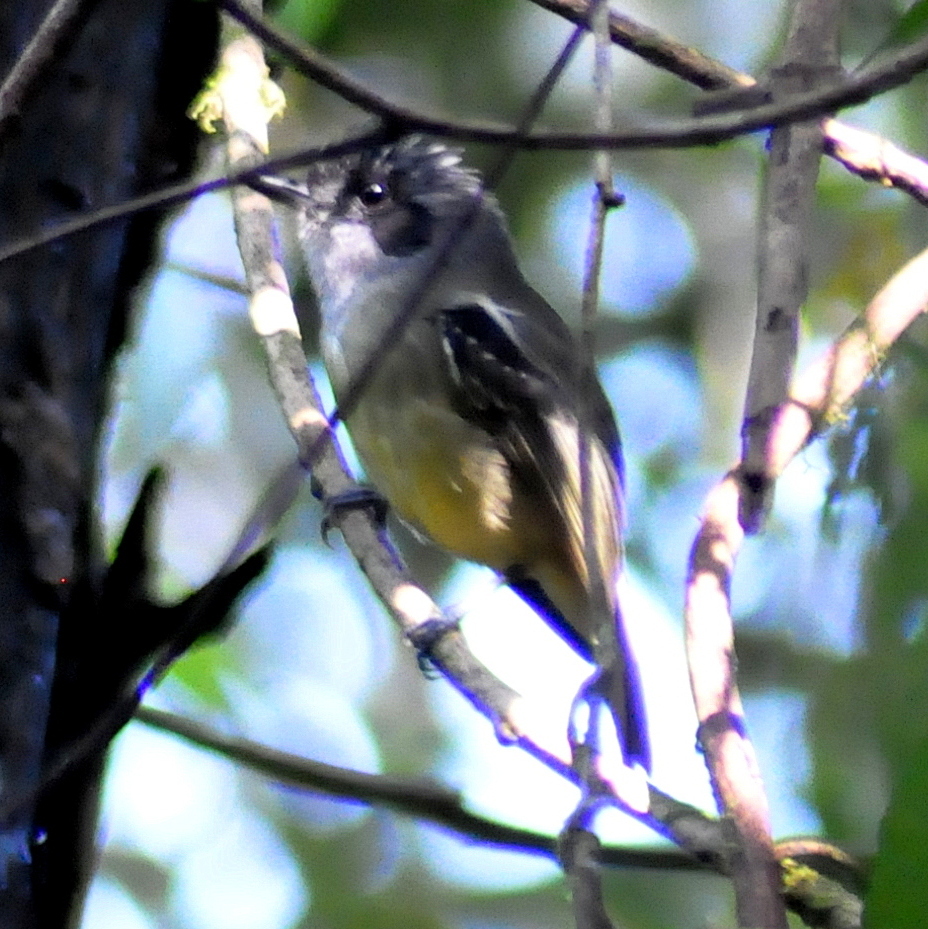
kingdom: Animalia
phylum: Chordata
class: Aves
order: Passeriformes
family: Thamnophilidae
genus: Dysithamnus
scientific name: Dysithamnus mentalis
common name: Plain antvireo
